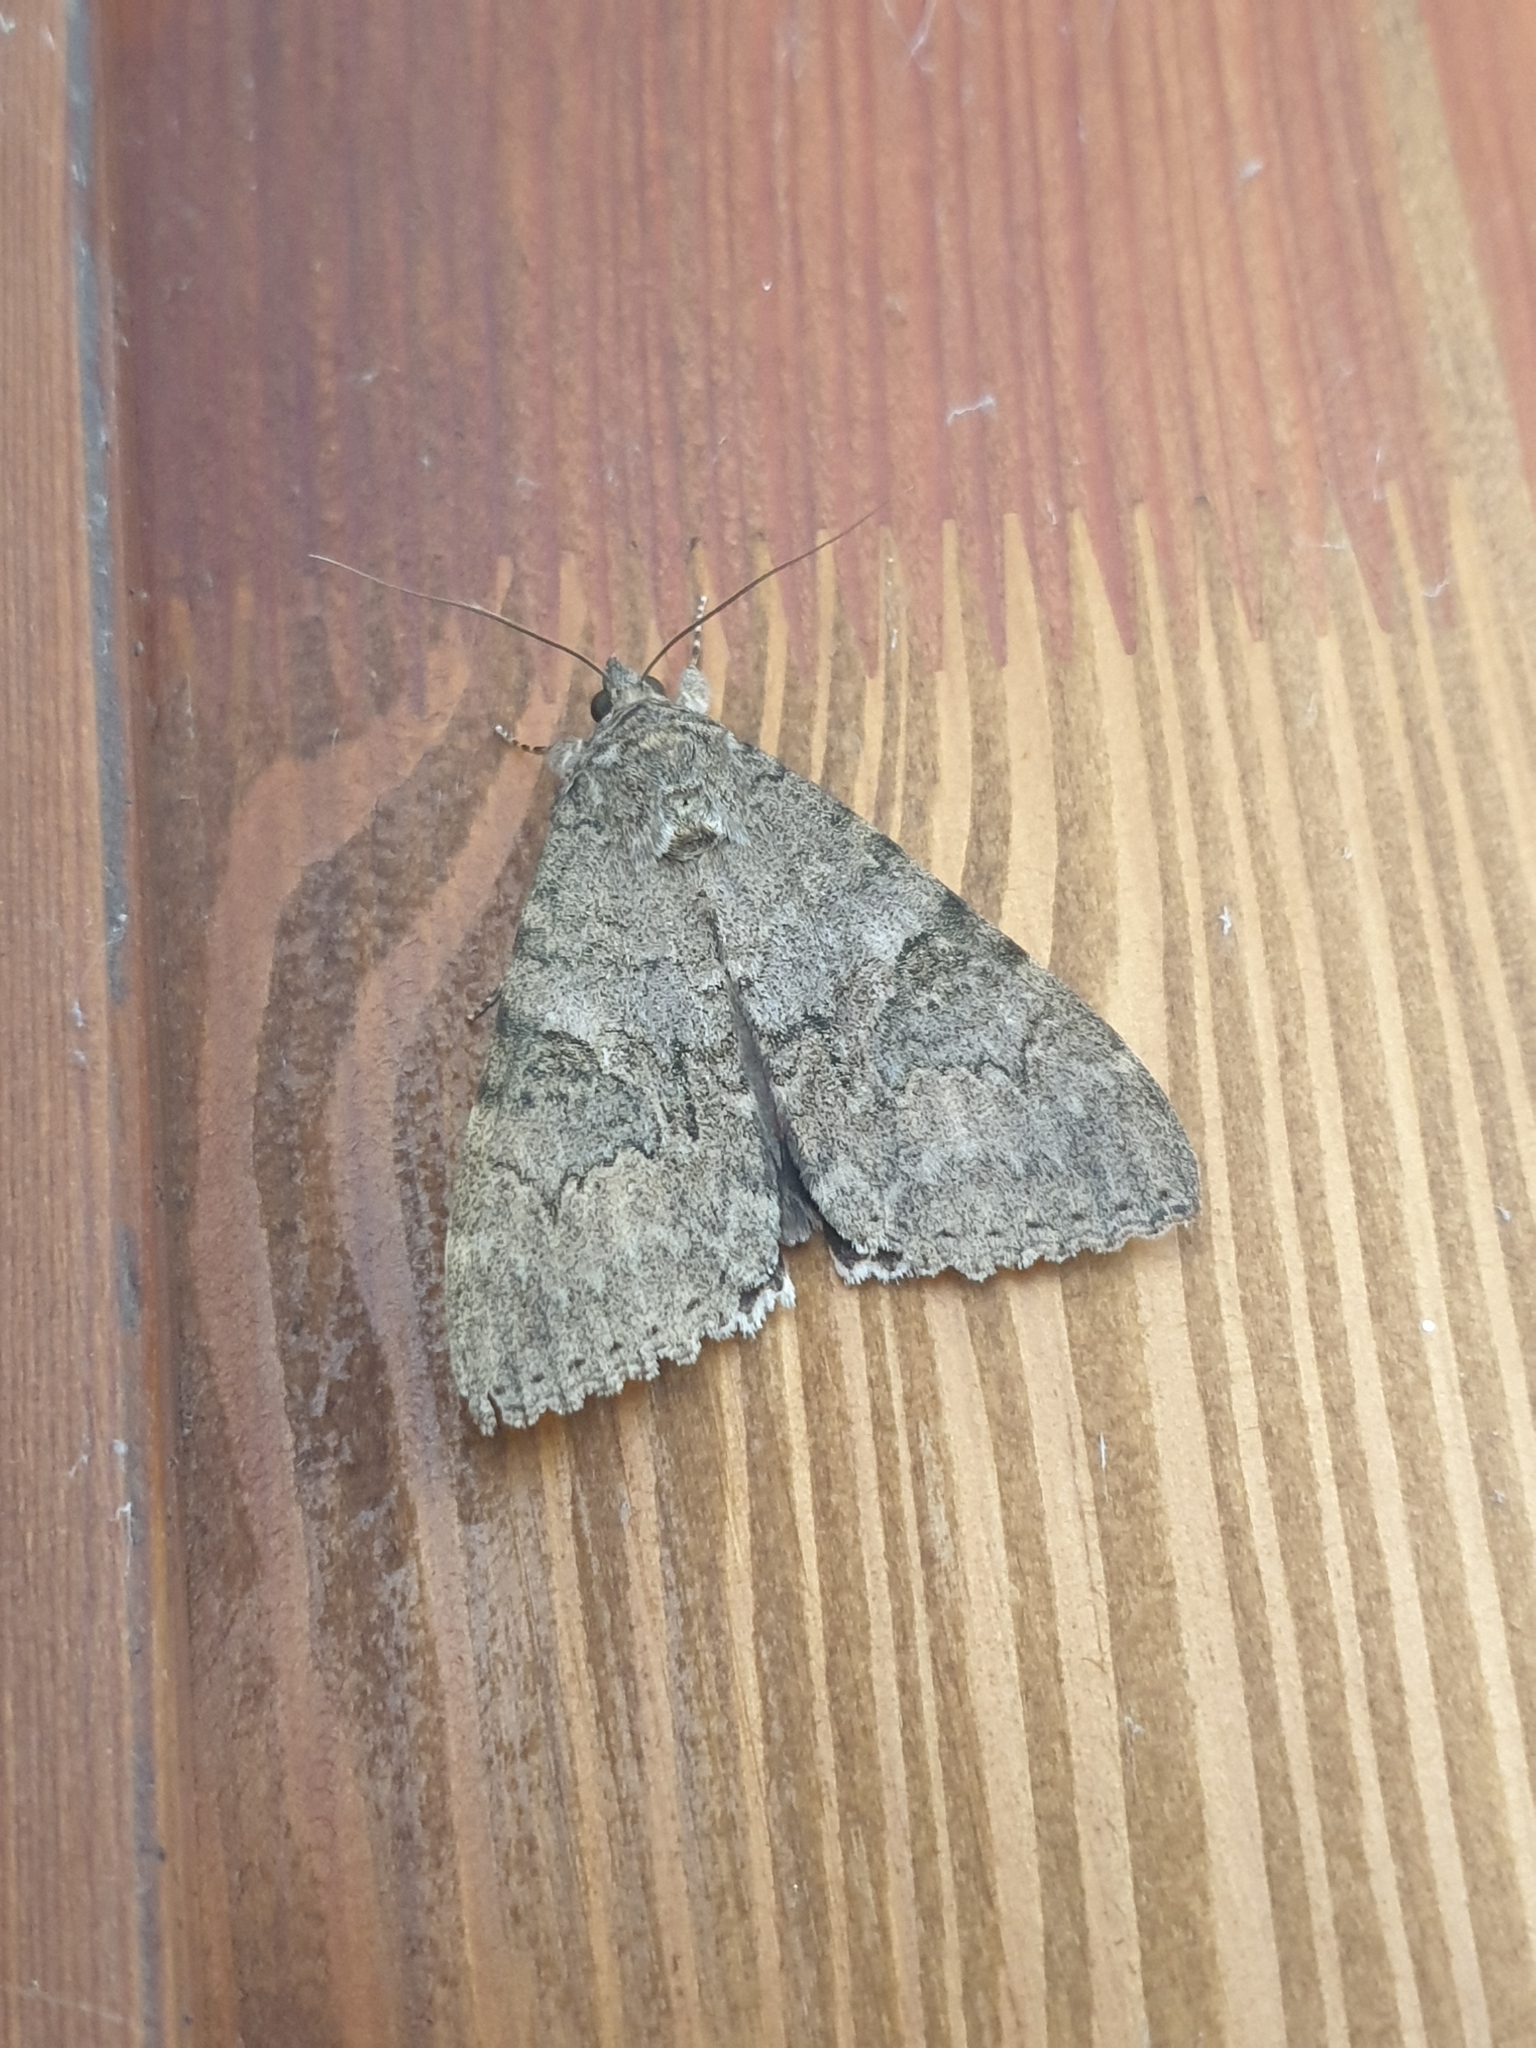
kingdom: Animalia
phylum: Arthropoda
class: Insecta
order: Lepidoptera
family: Erebidae
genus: Catocala
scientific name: Catocala nupta
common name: Red underwing
